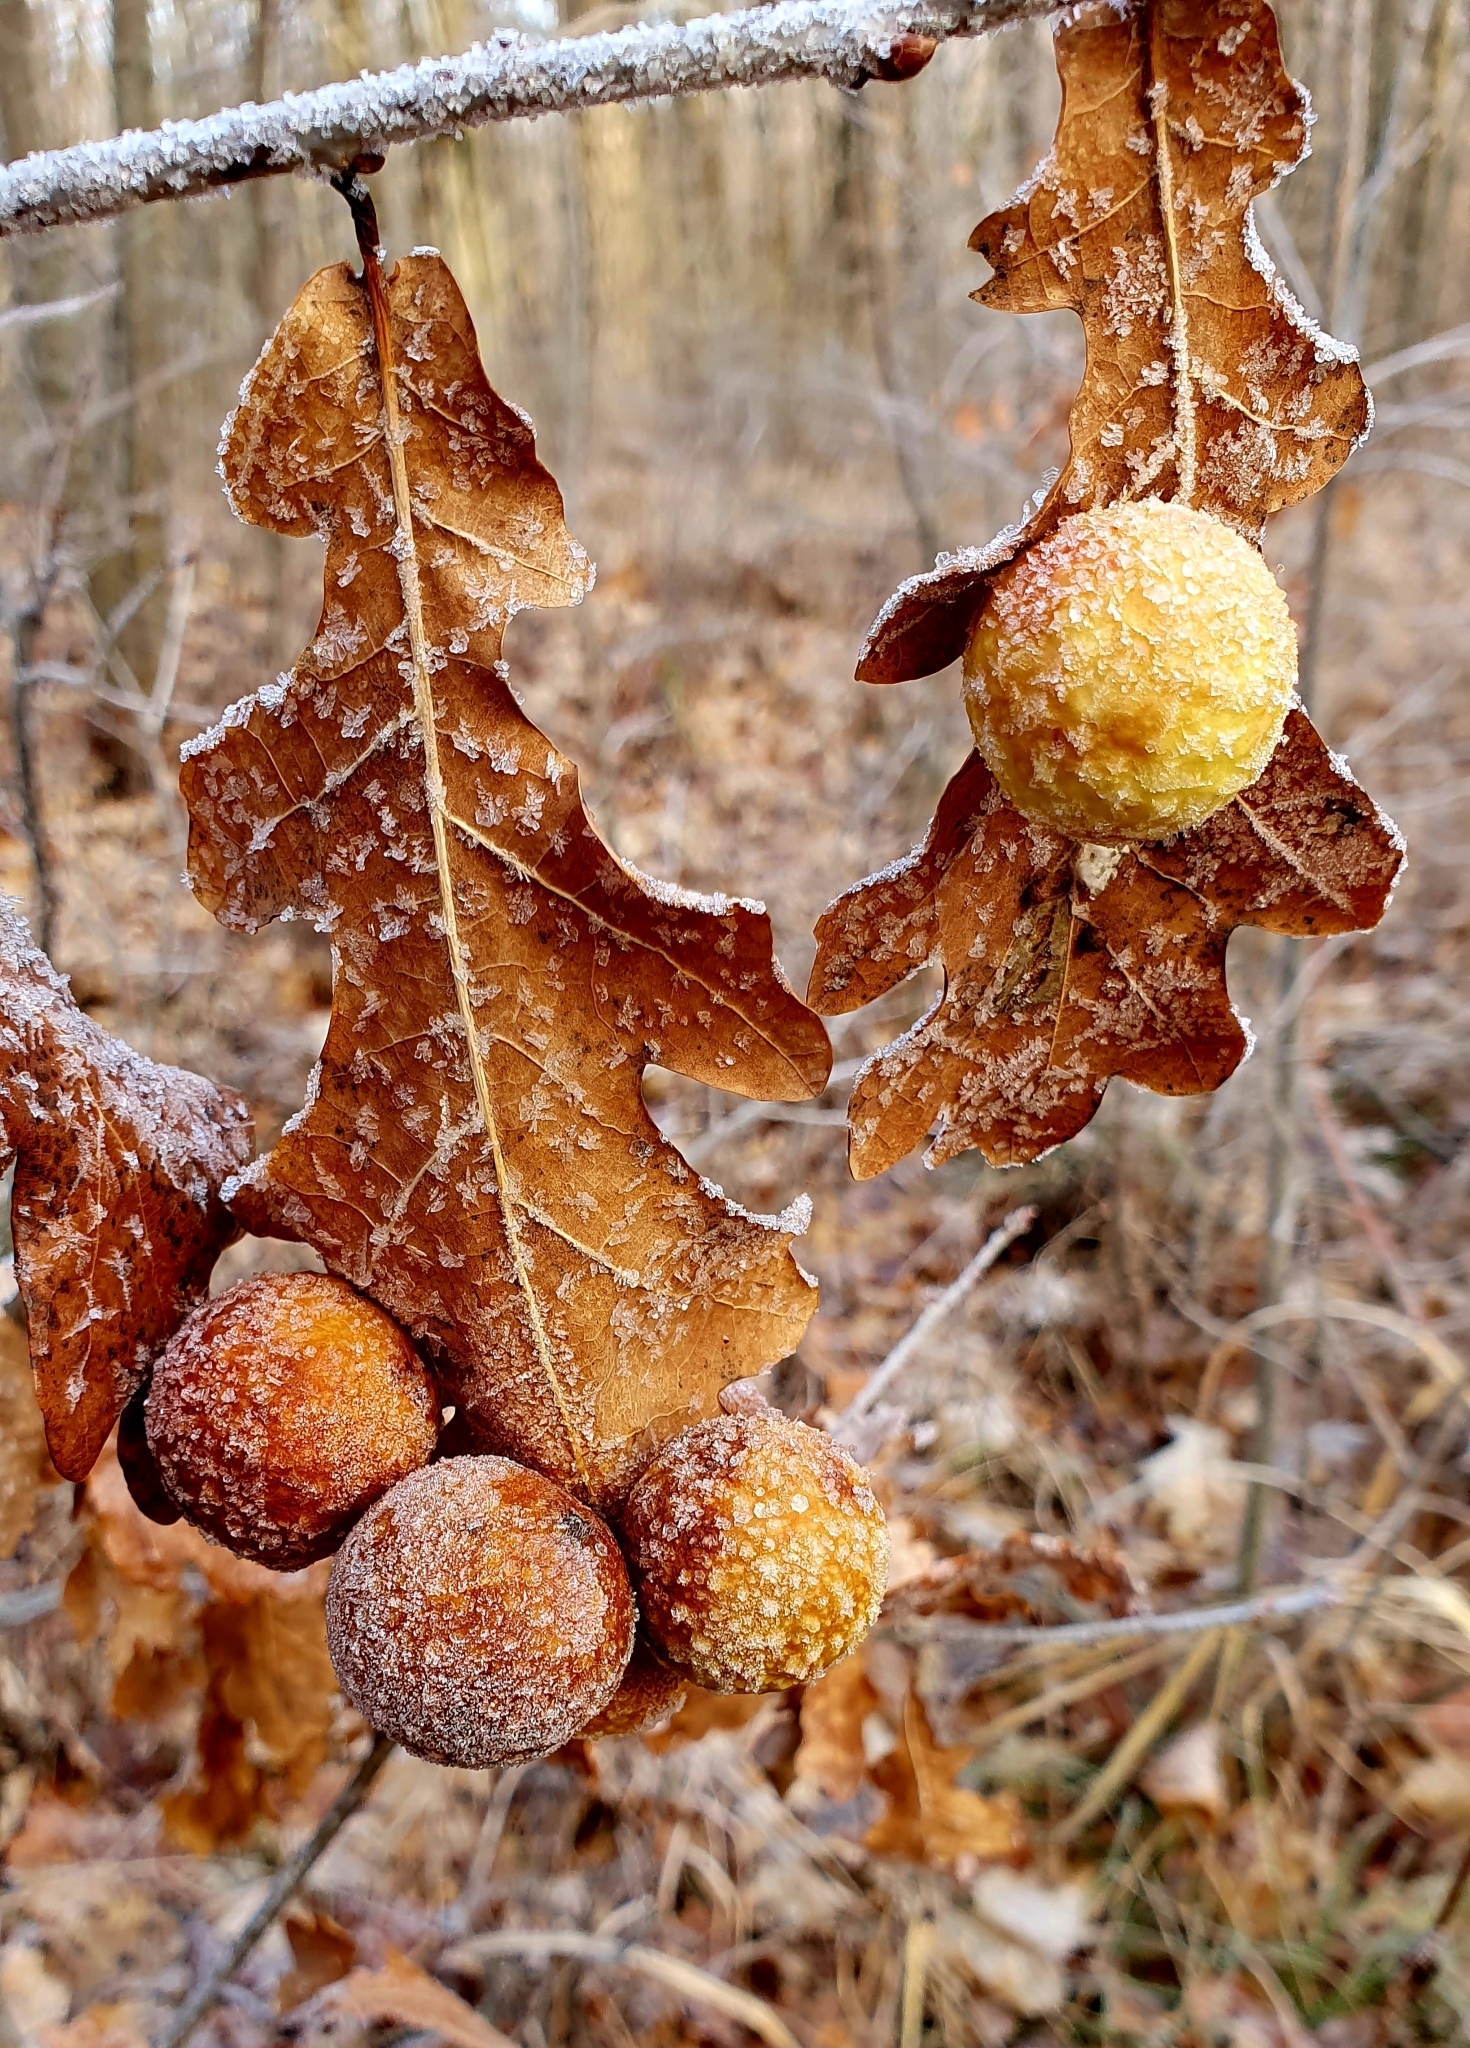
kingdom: Animalia
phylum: Arthropoda
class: Insecta
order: Hymenoptera
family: Cynipidae
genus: Cynips
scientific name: Cynips quercusfolii
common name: Cherry gall
